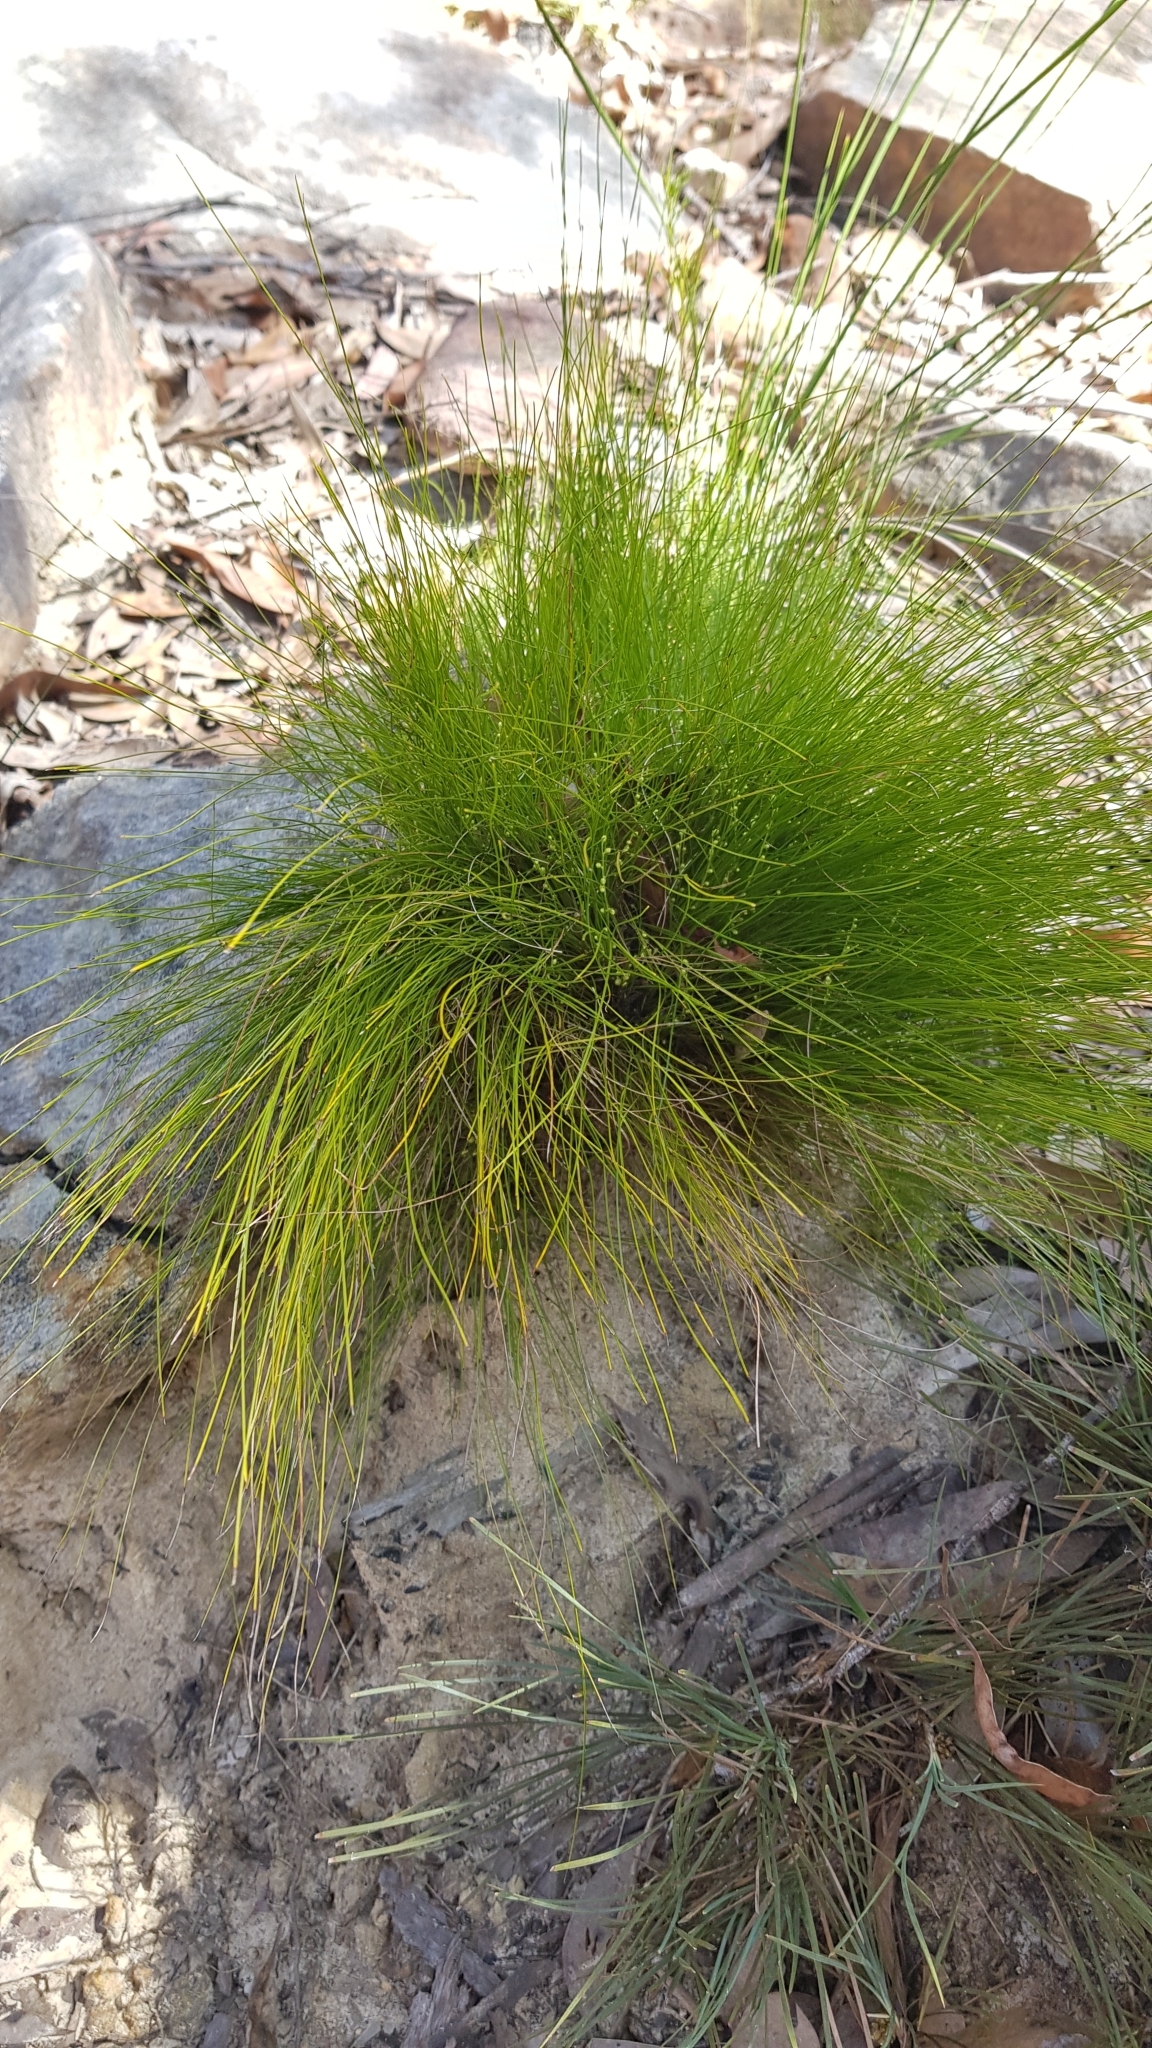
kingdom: Plantae
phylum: Tracheophyta
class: Liliopsida
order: Asparagales
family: Asparagaceae
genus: Lomandra
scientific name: Lomandra filiformis
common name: Wattle mat-rush
